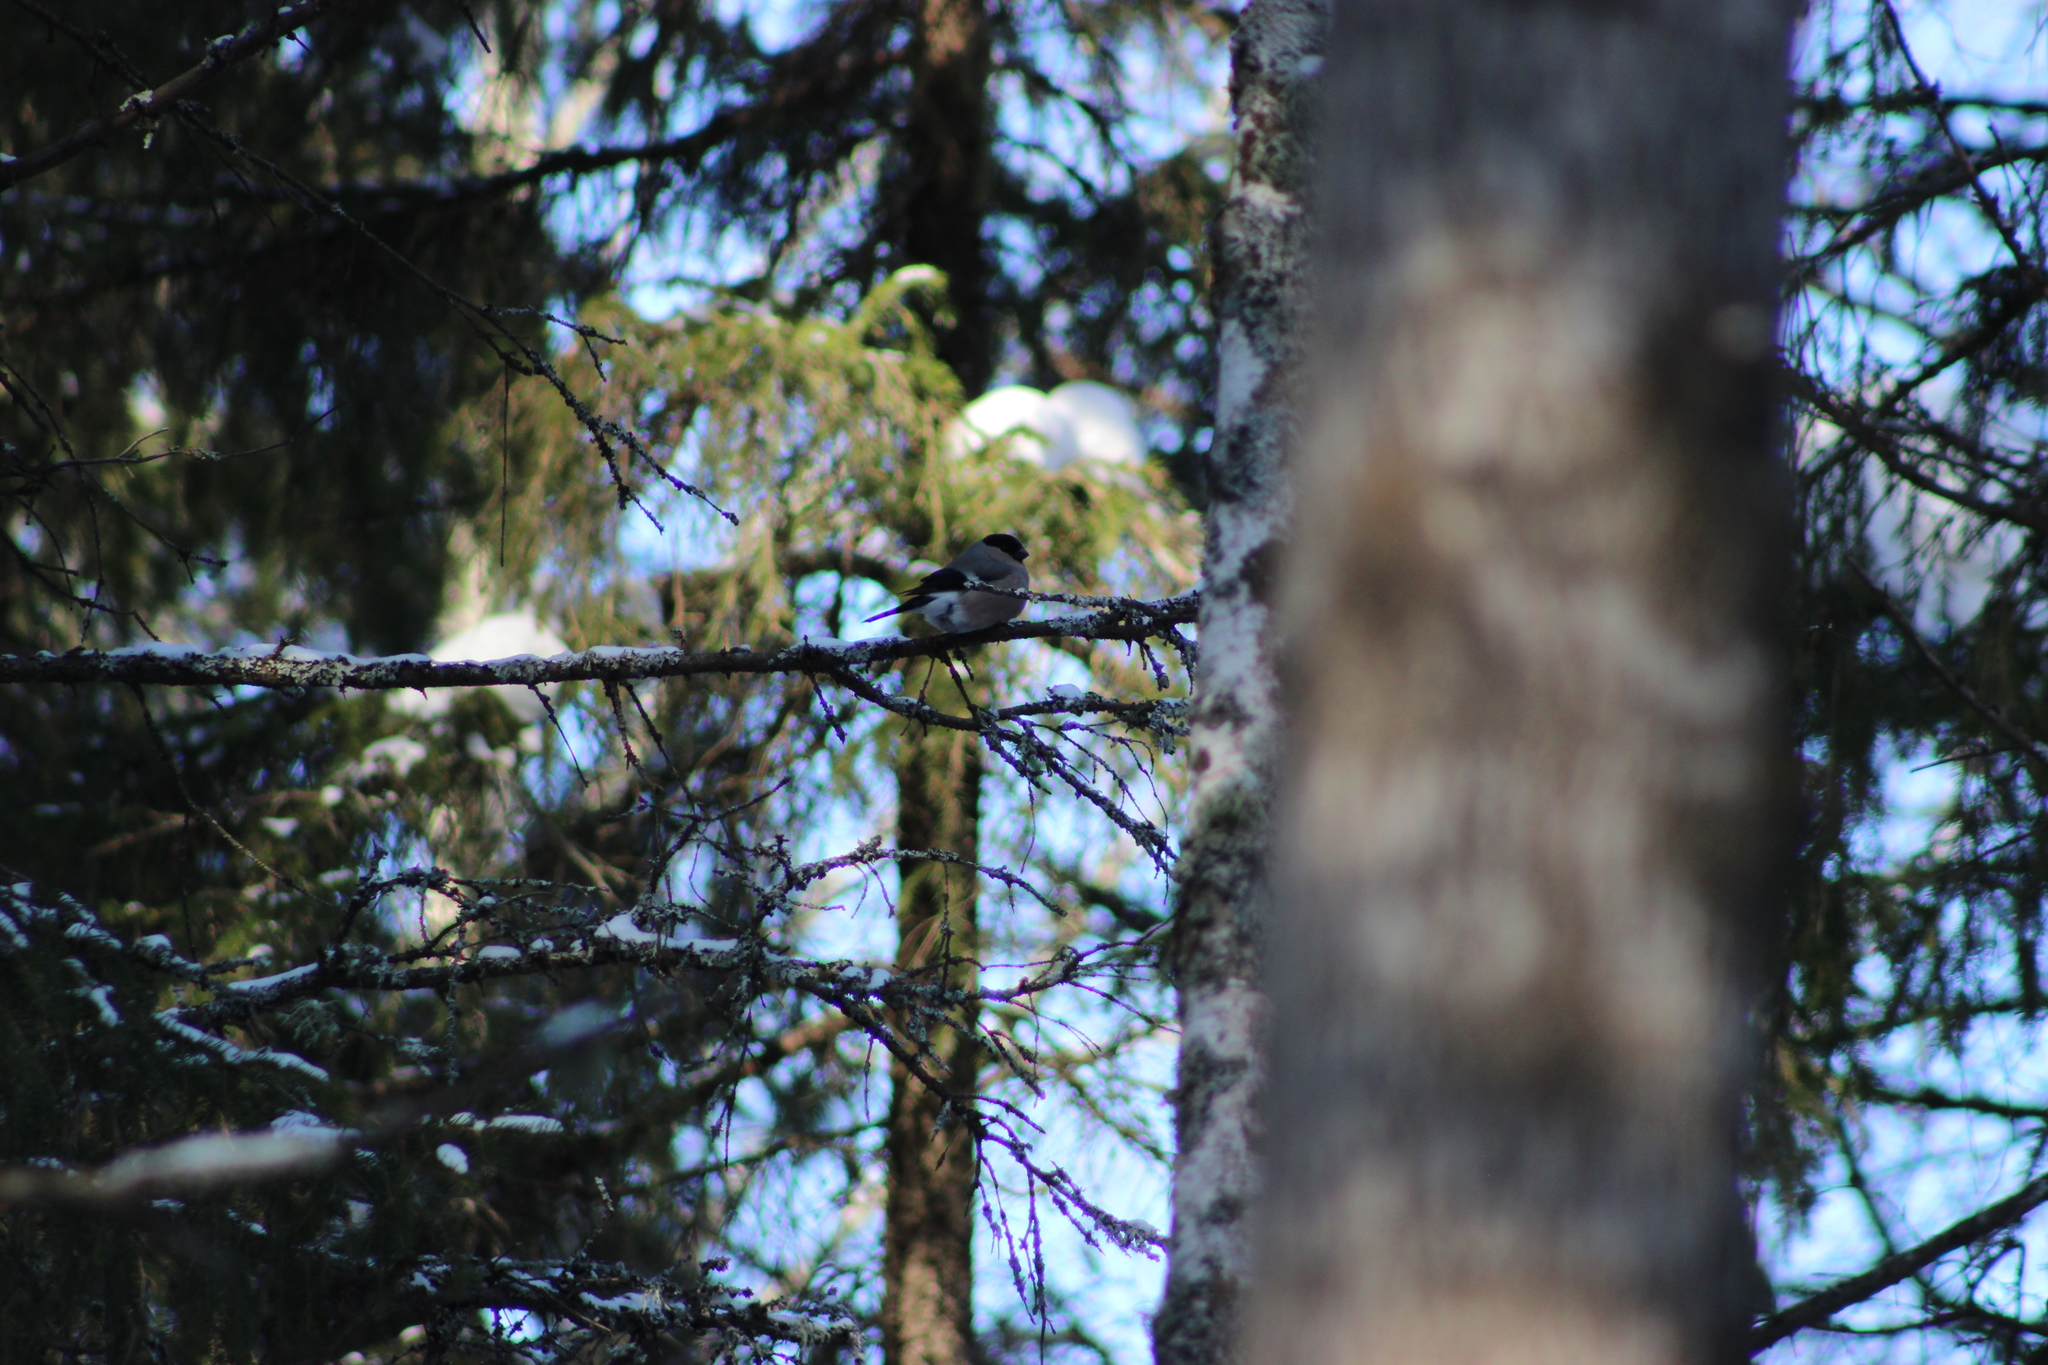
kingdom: Animalia
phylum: Chordata
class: Aves
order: Passeriformes
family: Fringillidae
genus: Pyrrhula
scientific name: Pyrrhula pyrrhula
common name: Eurasian bullfinch
